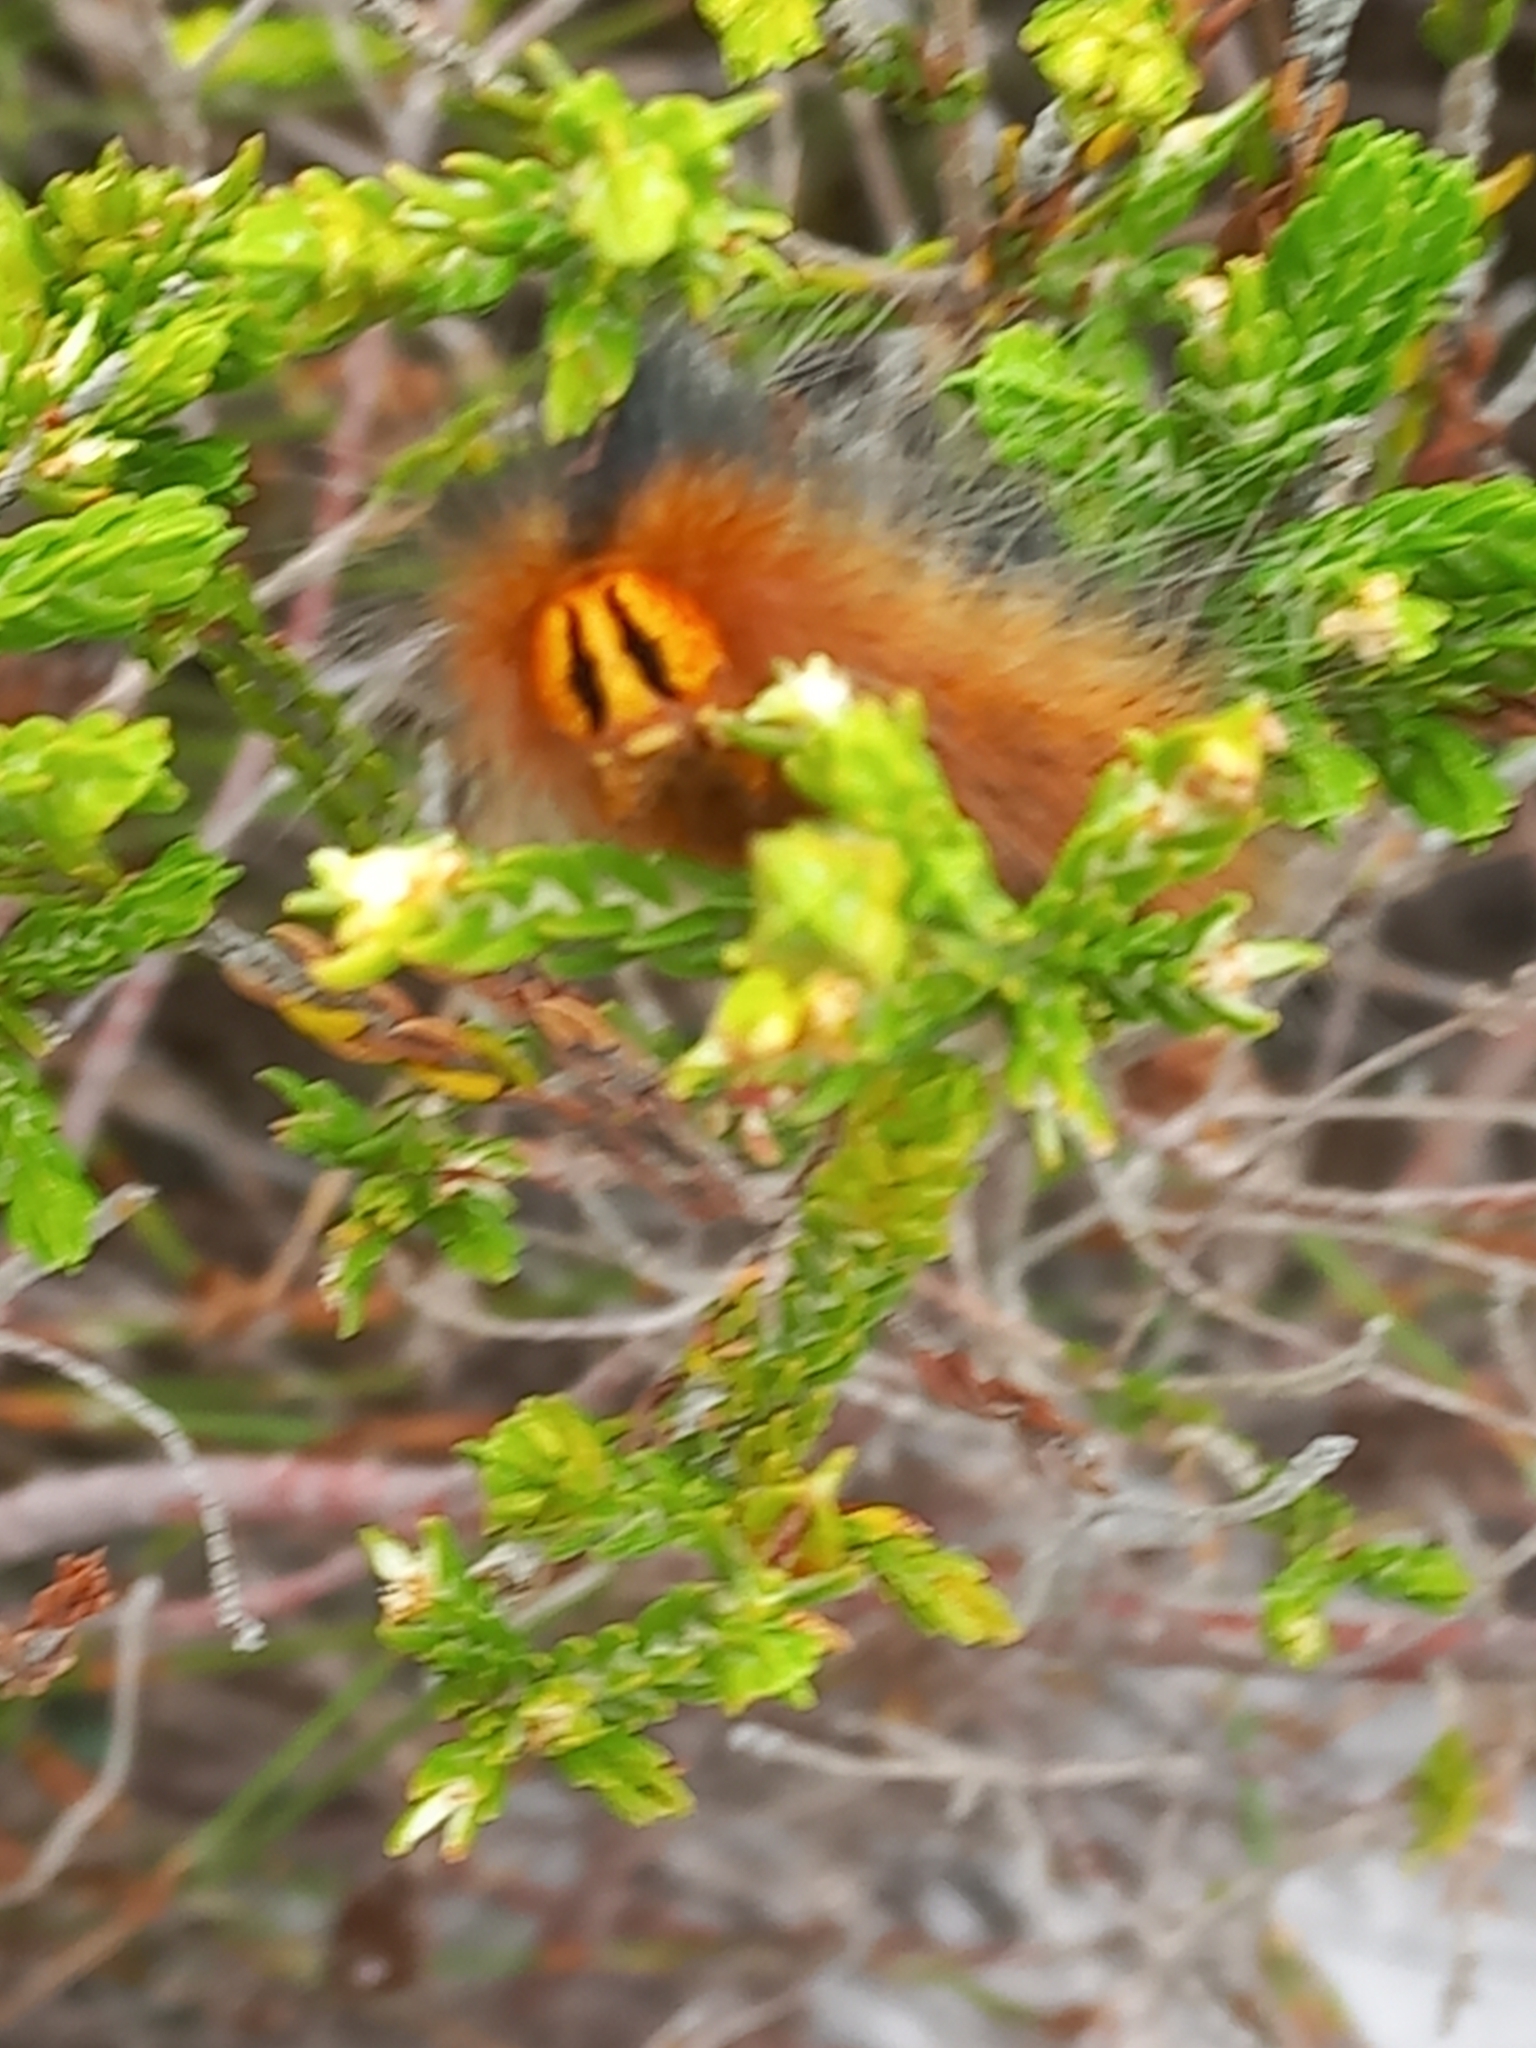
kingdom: Animalia
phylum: Arthropoda
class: Insecta
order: Lepidoptera
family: Lasiocampidae
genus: Mesocelis
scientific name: Mesocelis monticola
